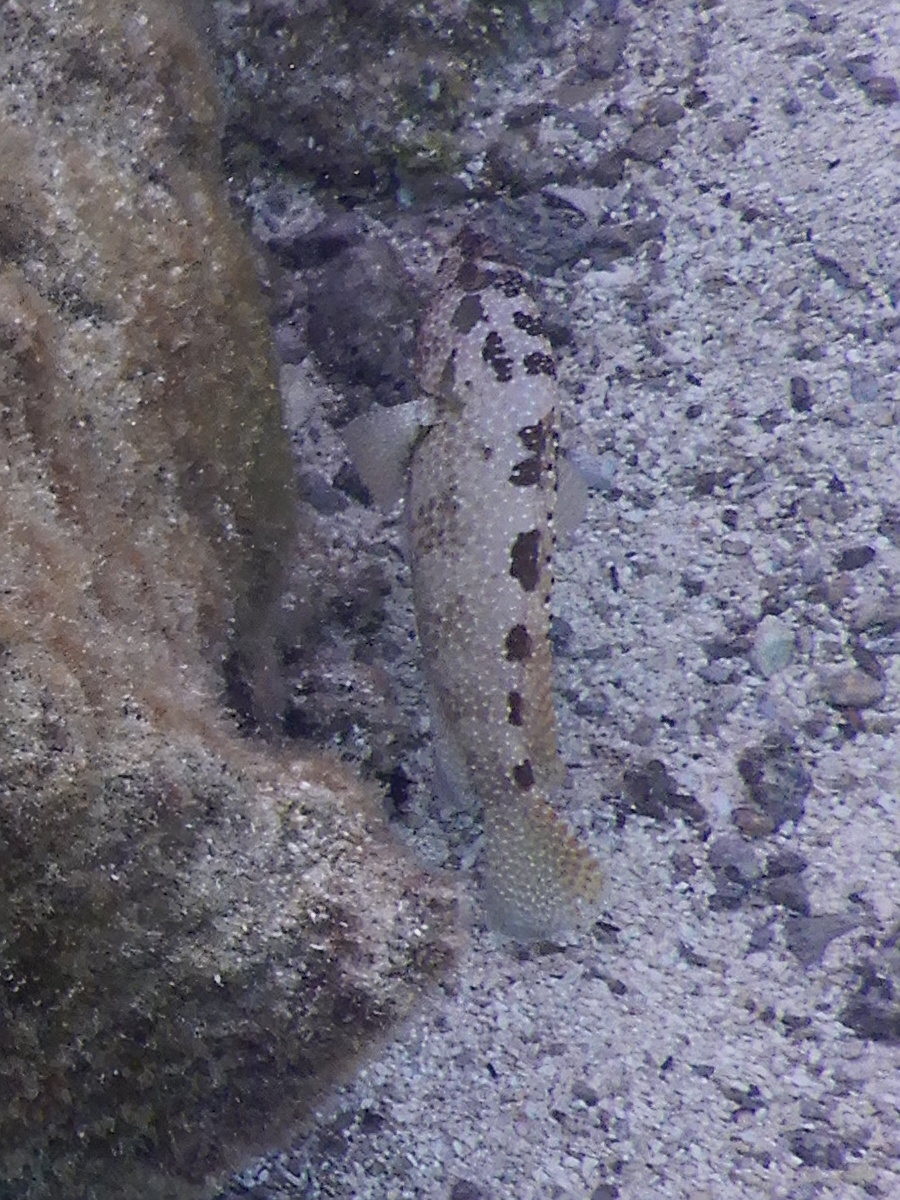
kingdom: Animalia
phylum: Chordata
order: Perciformes
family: Serranidae
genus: Epinephelus
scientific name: Epinephelus hexagonatus
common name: Hexagon grouper
